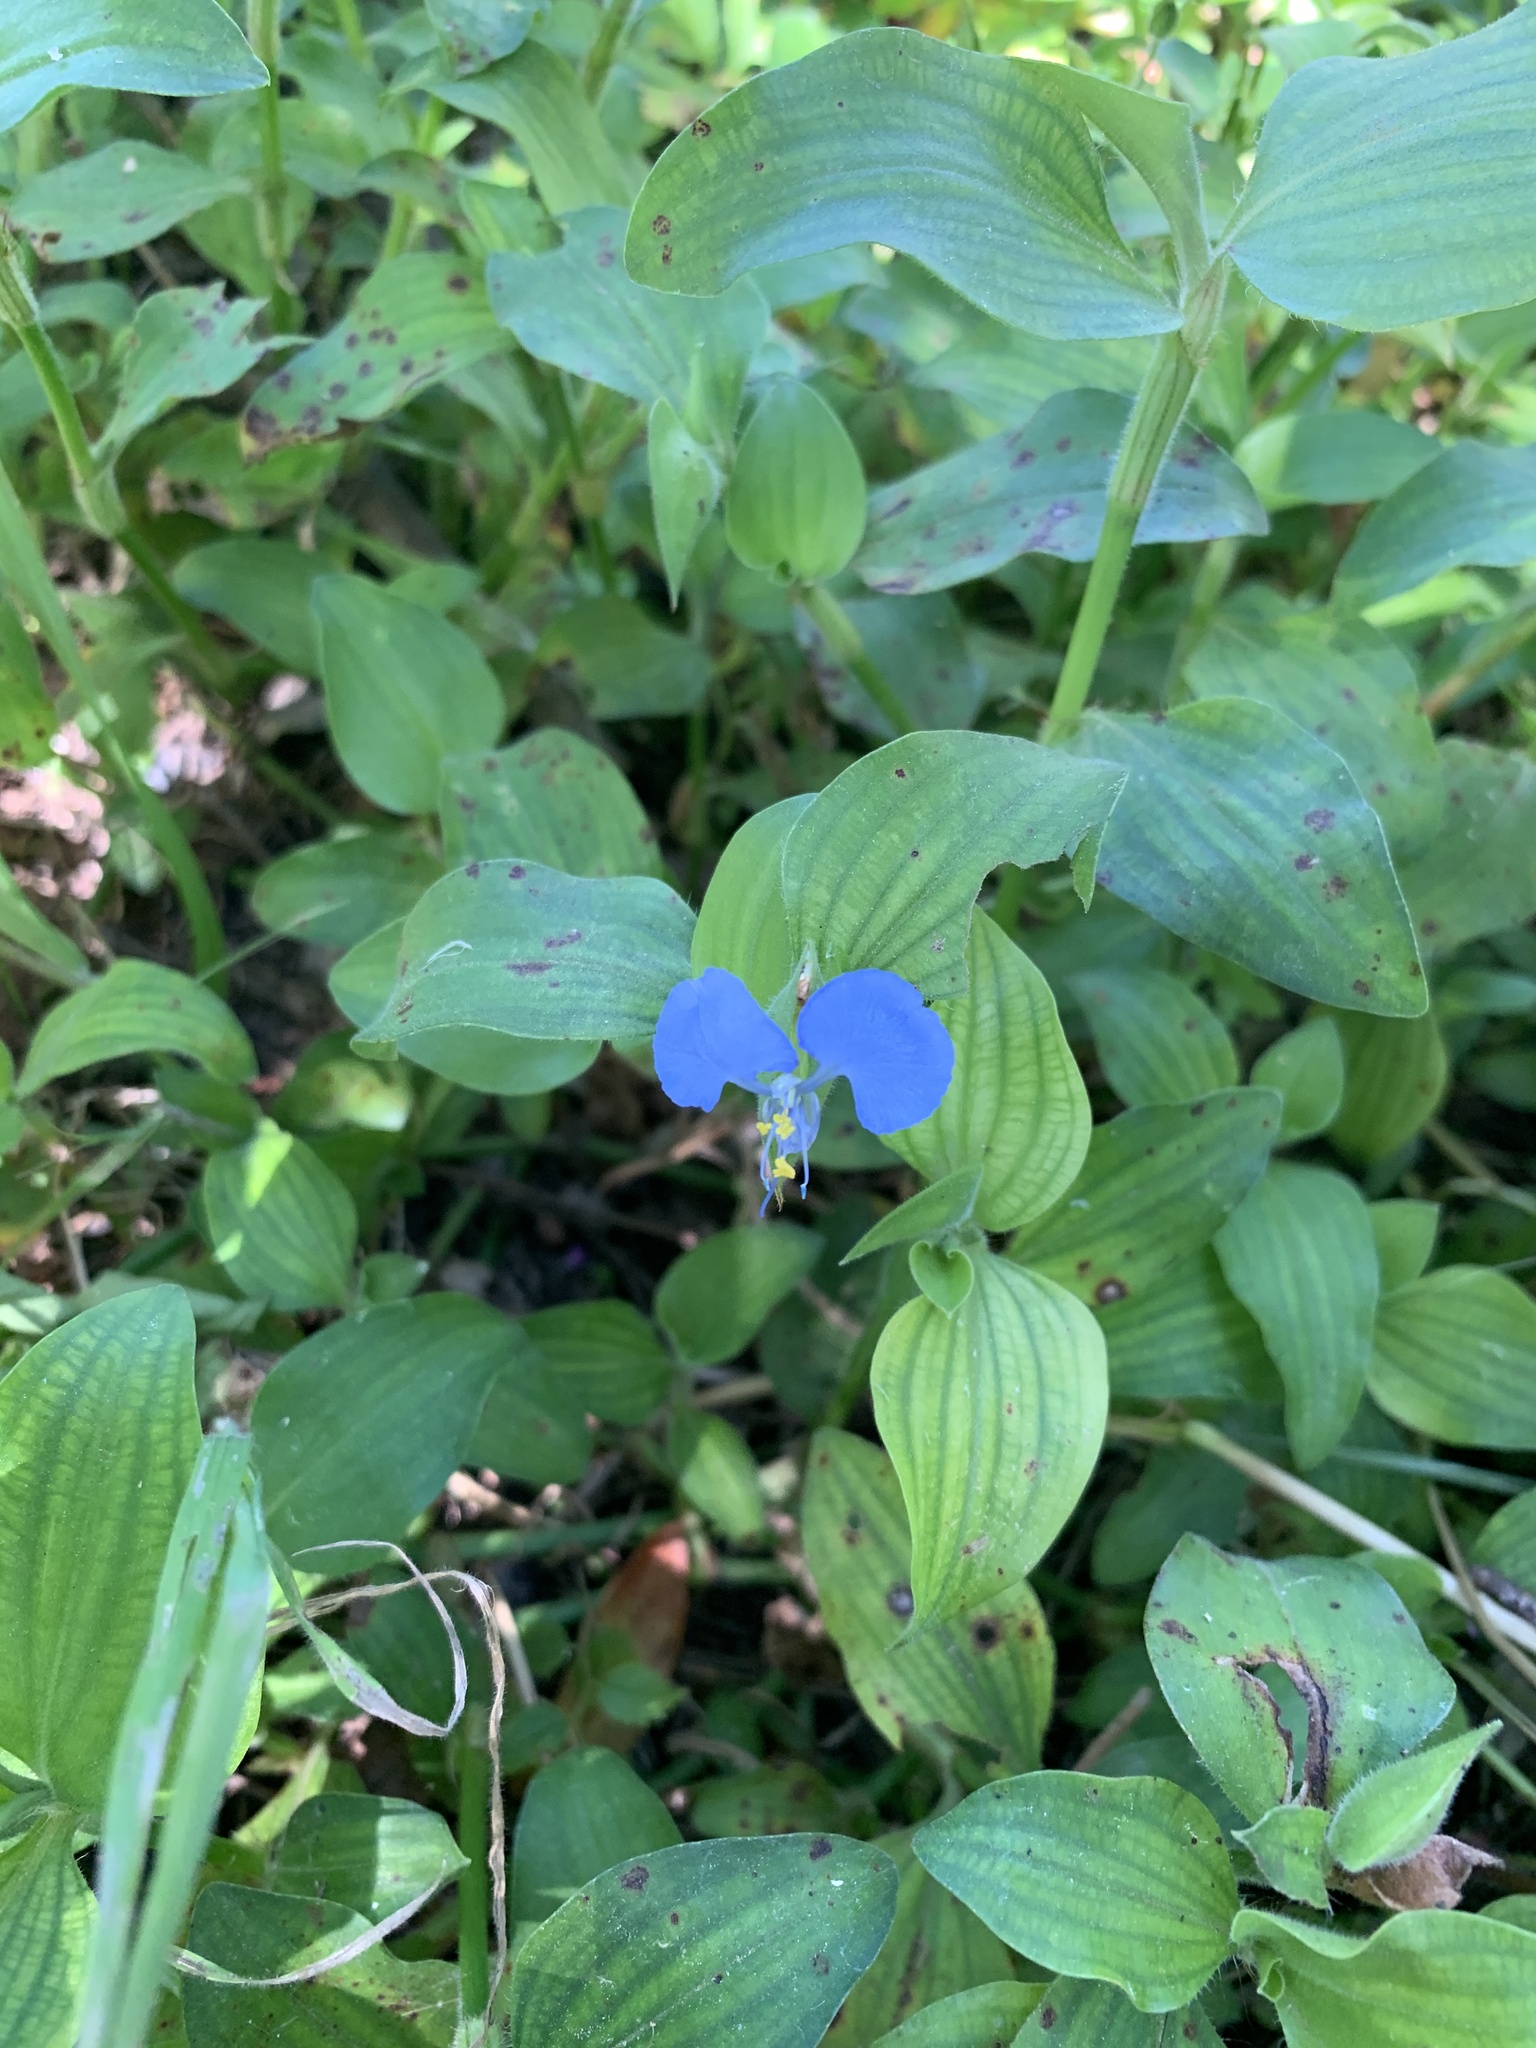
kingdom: Plantae
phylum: Tracheophyta
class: Liliopsida
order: Commelinales
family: Commelinaceae
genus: Commelina
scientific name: Commelina benghalensis
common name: Jio
